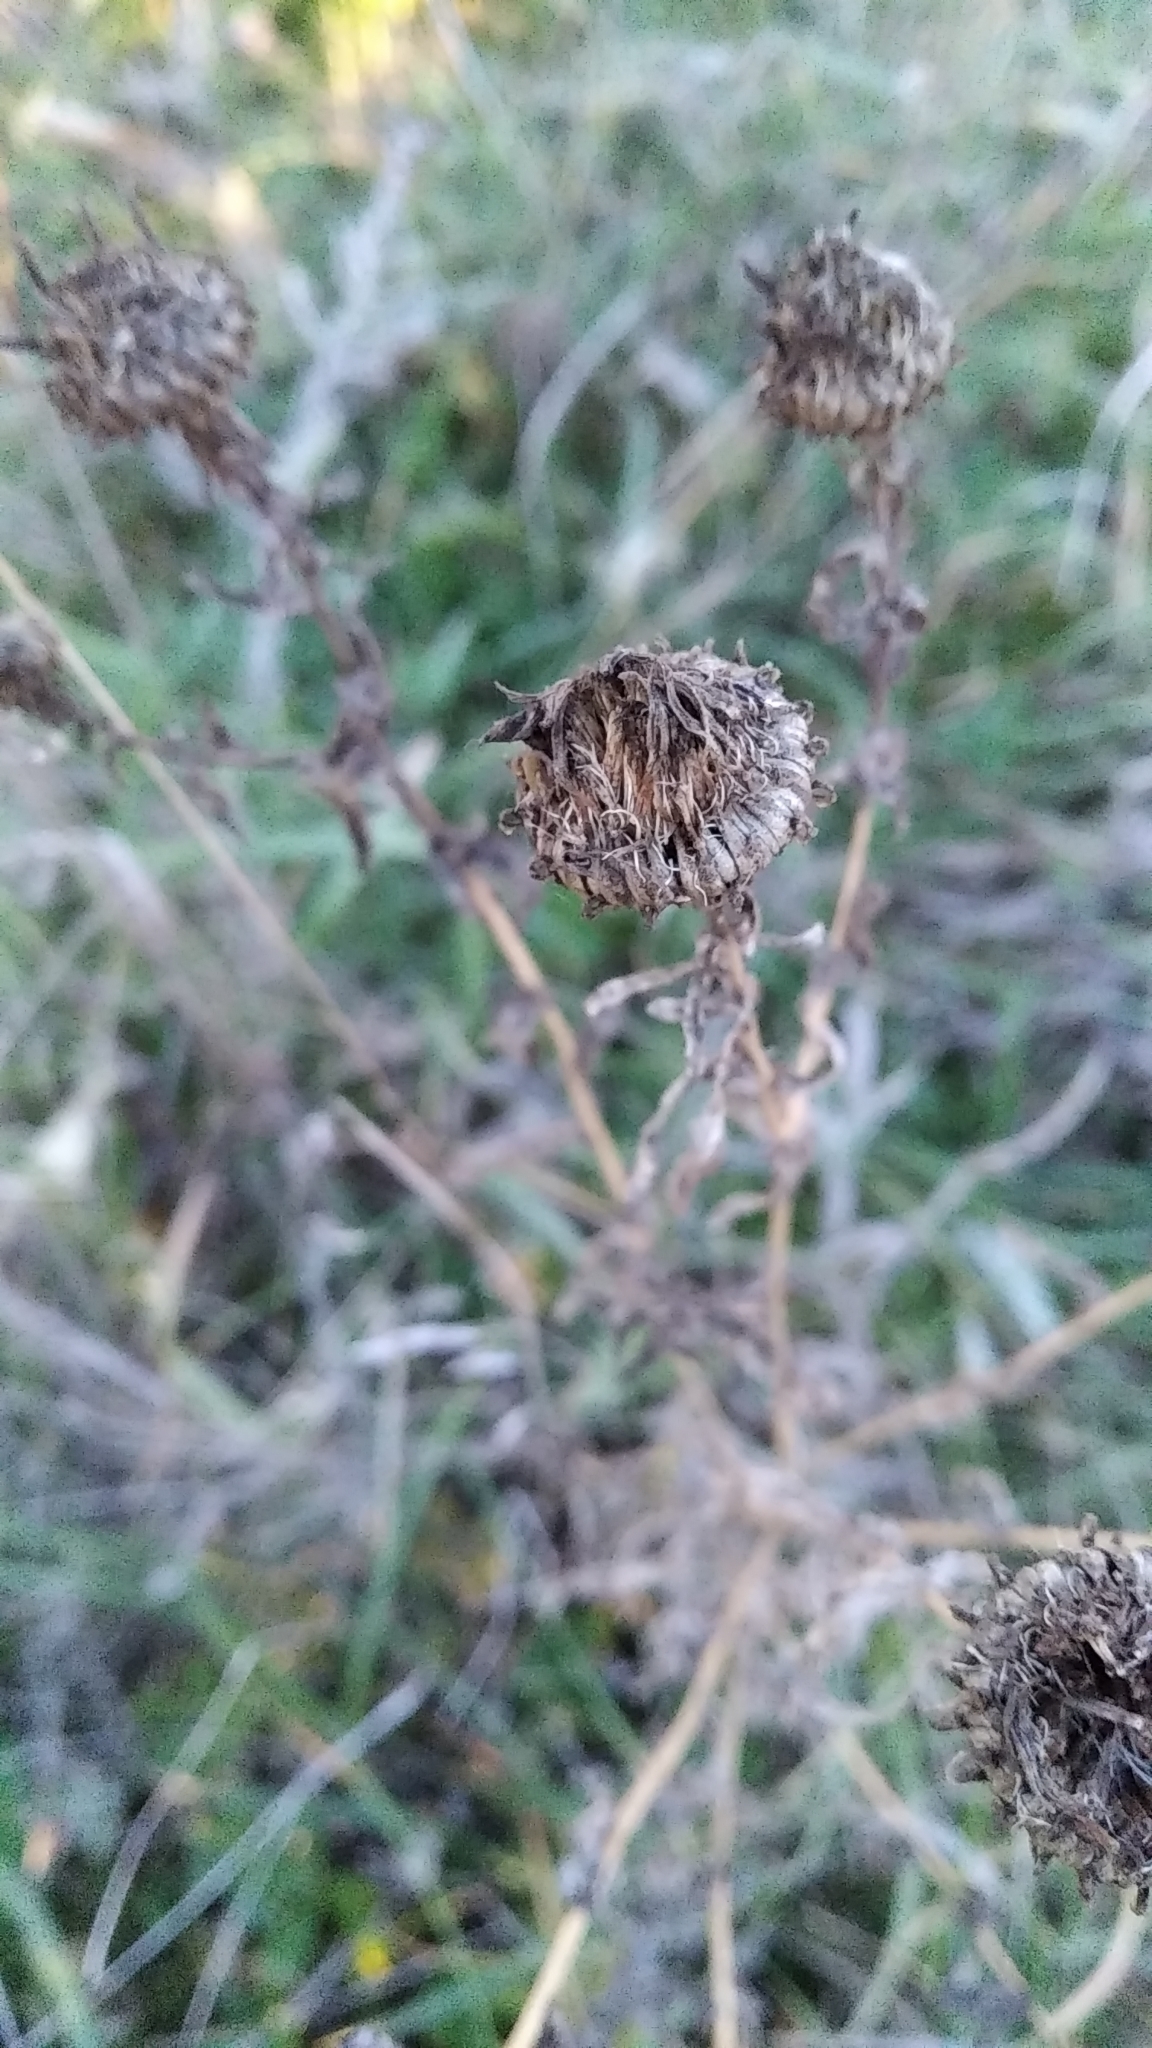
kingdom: Plantae
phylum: Tracheophyta
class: Magnoliopsida
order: Asterales
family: Asteraceae
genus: Grindelia
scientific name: Grindelia squarrosa
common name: Curly-cup gumweed
